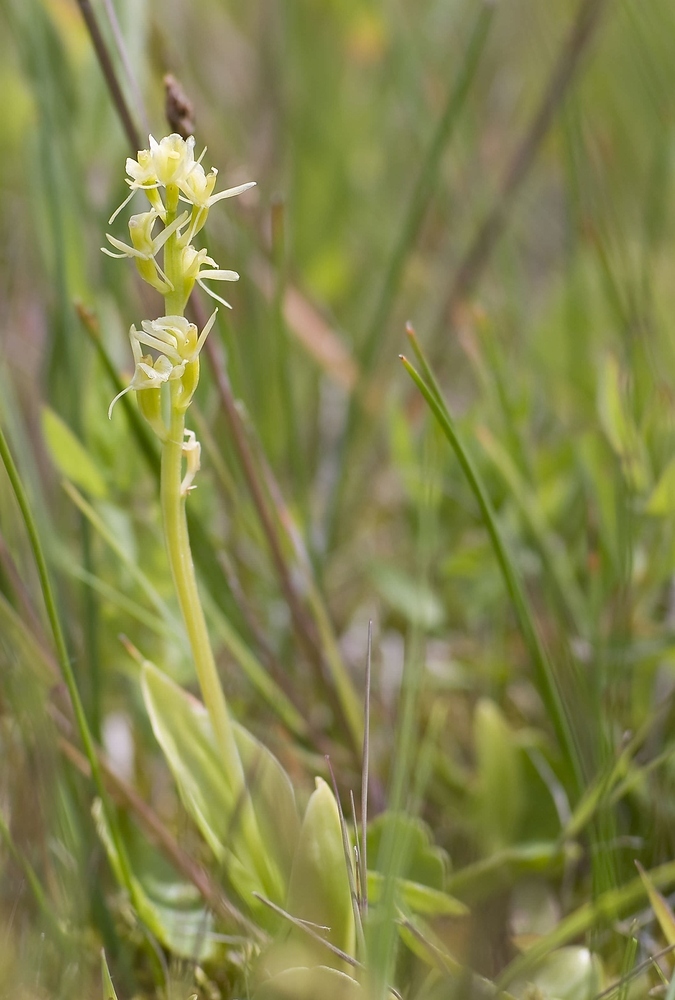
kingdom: Animalia
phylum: Arthropoda
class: Insecta
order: Coleoptera
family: Curculionidae
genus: Liparis
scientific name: Liparis loeselii
